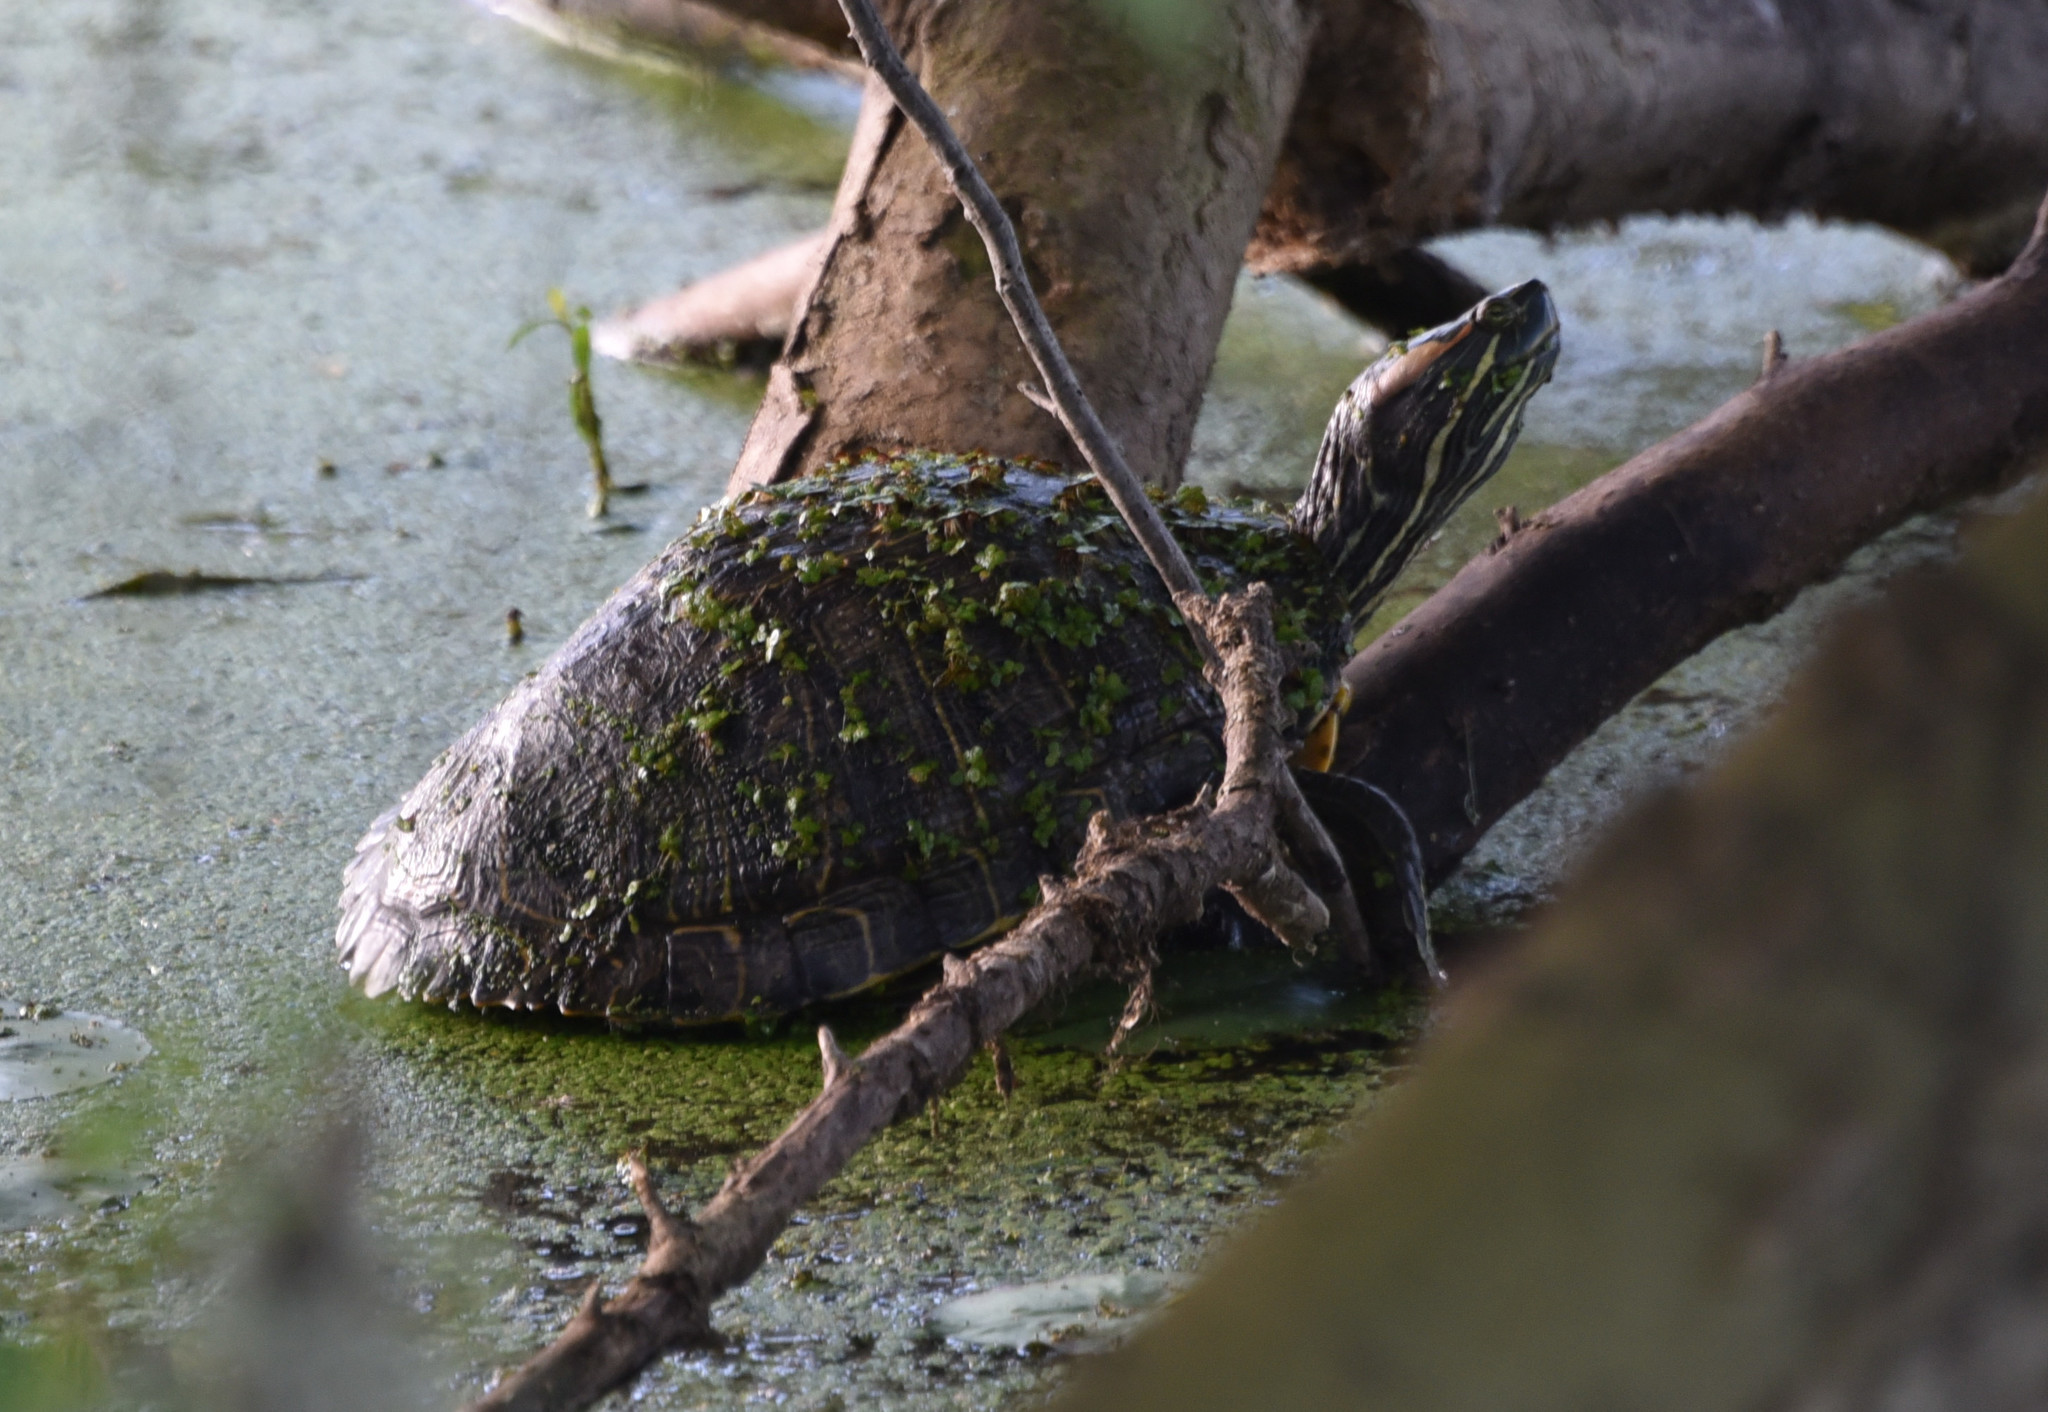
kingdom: Animalia
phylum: Chordata
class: Testudines
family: Emydidae
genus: Trachemys
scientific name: Trachemys scripta
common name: Slider
